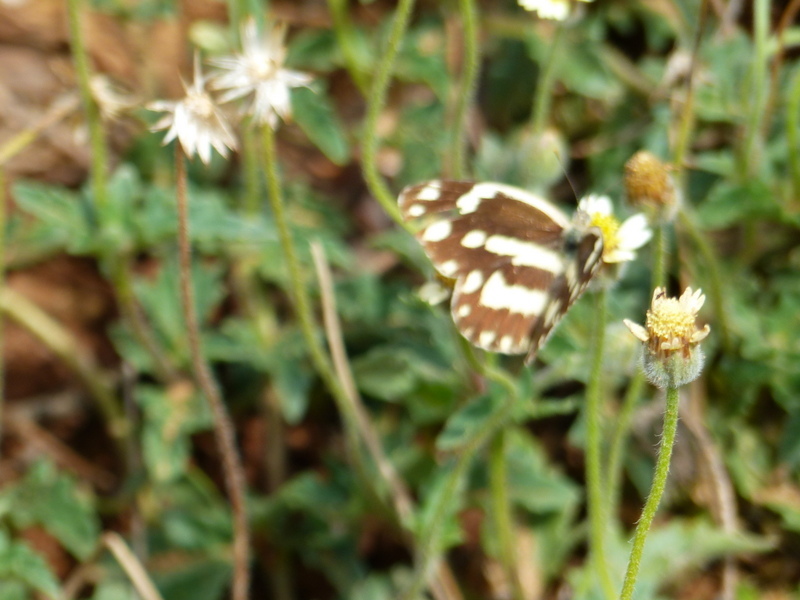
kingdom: Animalia
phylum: Arthropoda
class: Insecta
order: Lepidoptera
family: Pieridae
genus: Pinacopteryx
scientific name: Pinacopteryx eriphia
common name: Zebra white
